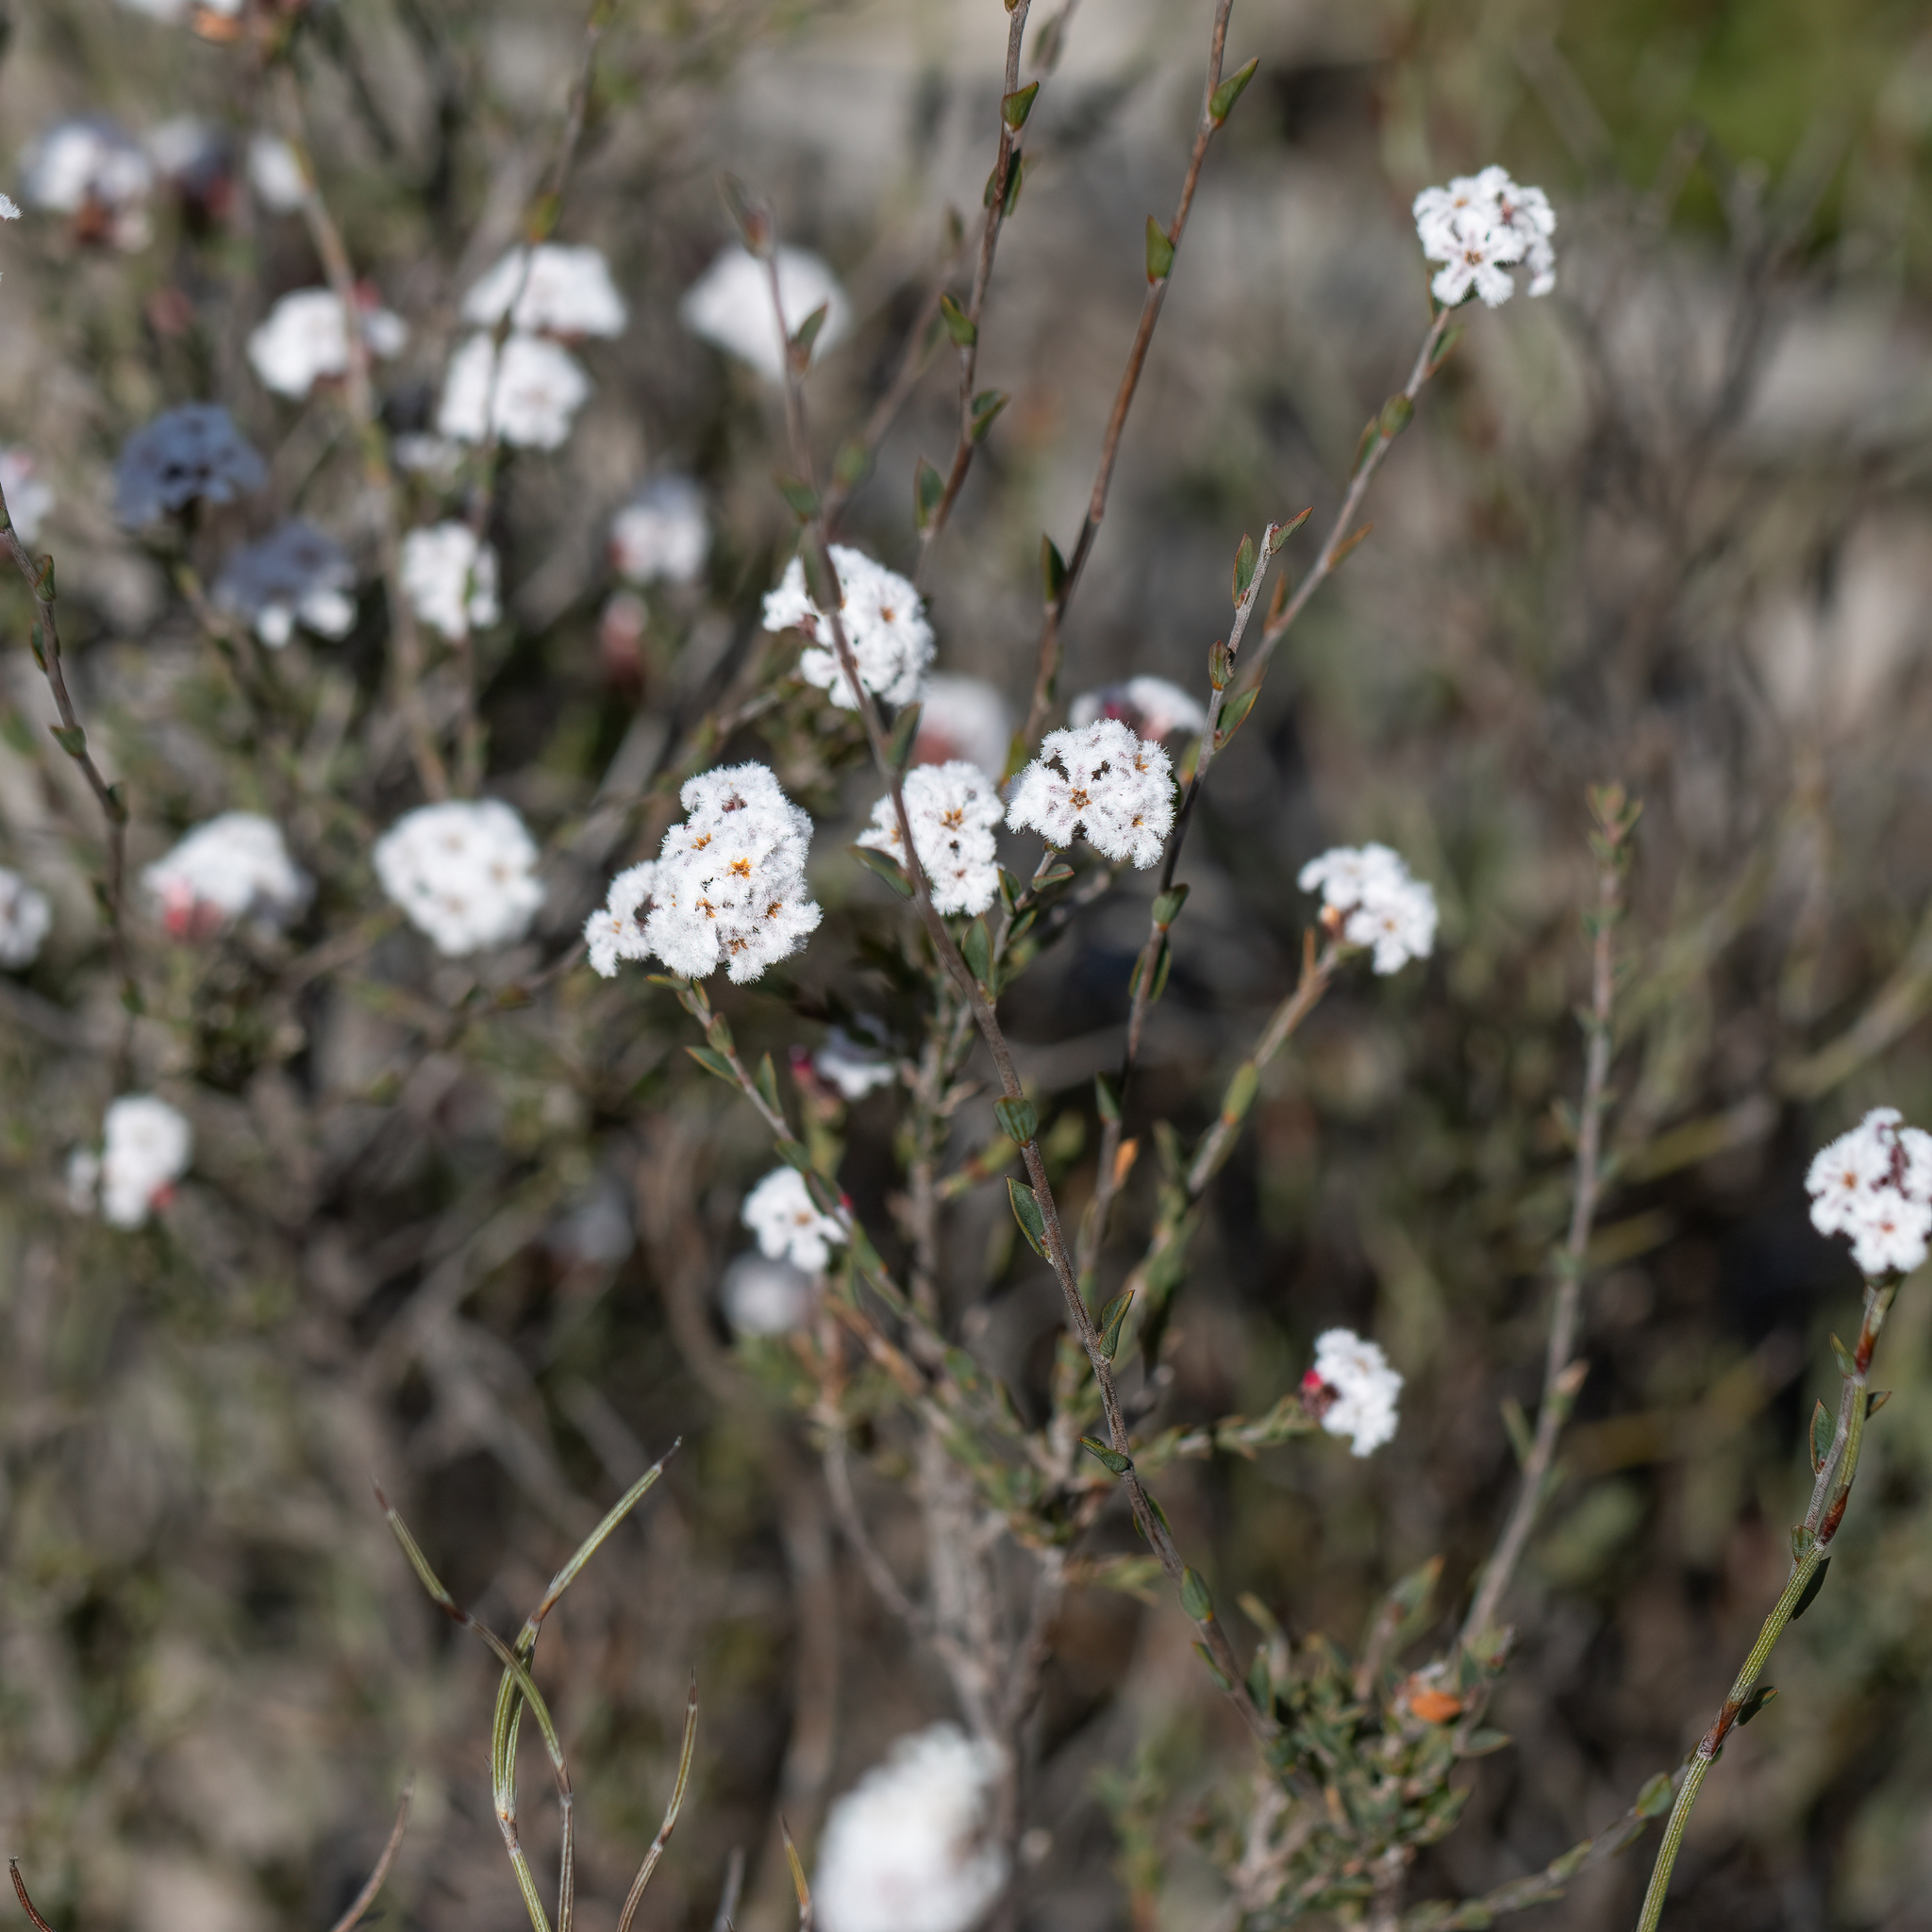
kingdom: Plantae
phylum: Tracheophyta
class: Magnoliopsida
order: Ericales
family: Ericaceae
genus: Leucopogon
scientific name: Leucopogon costatus
